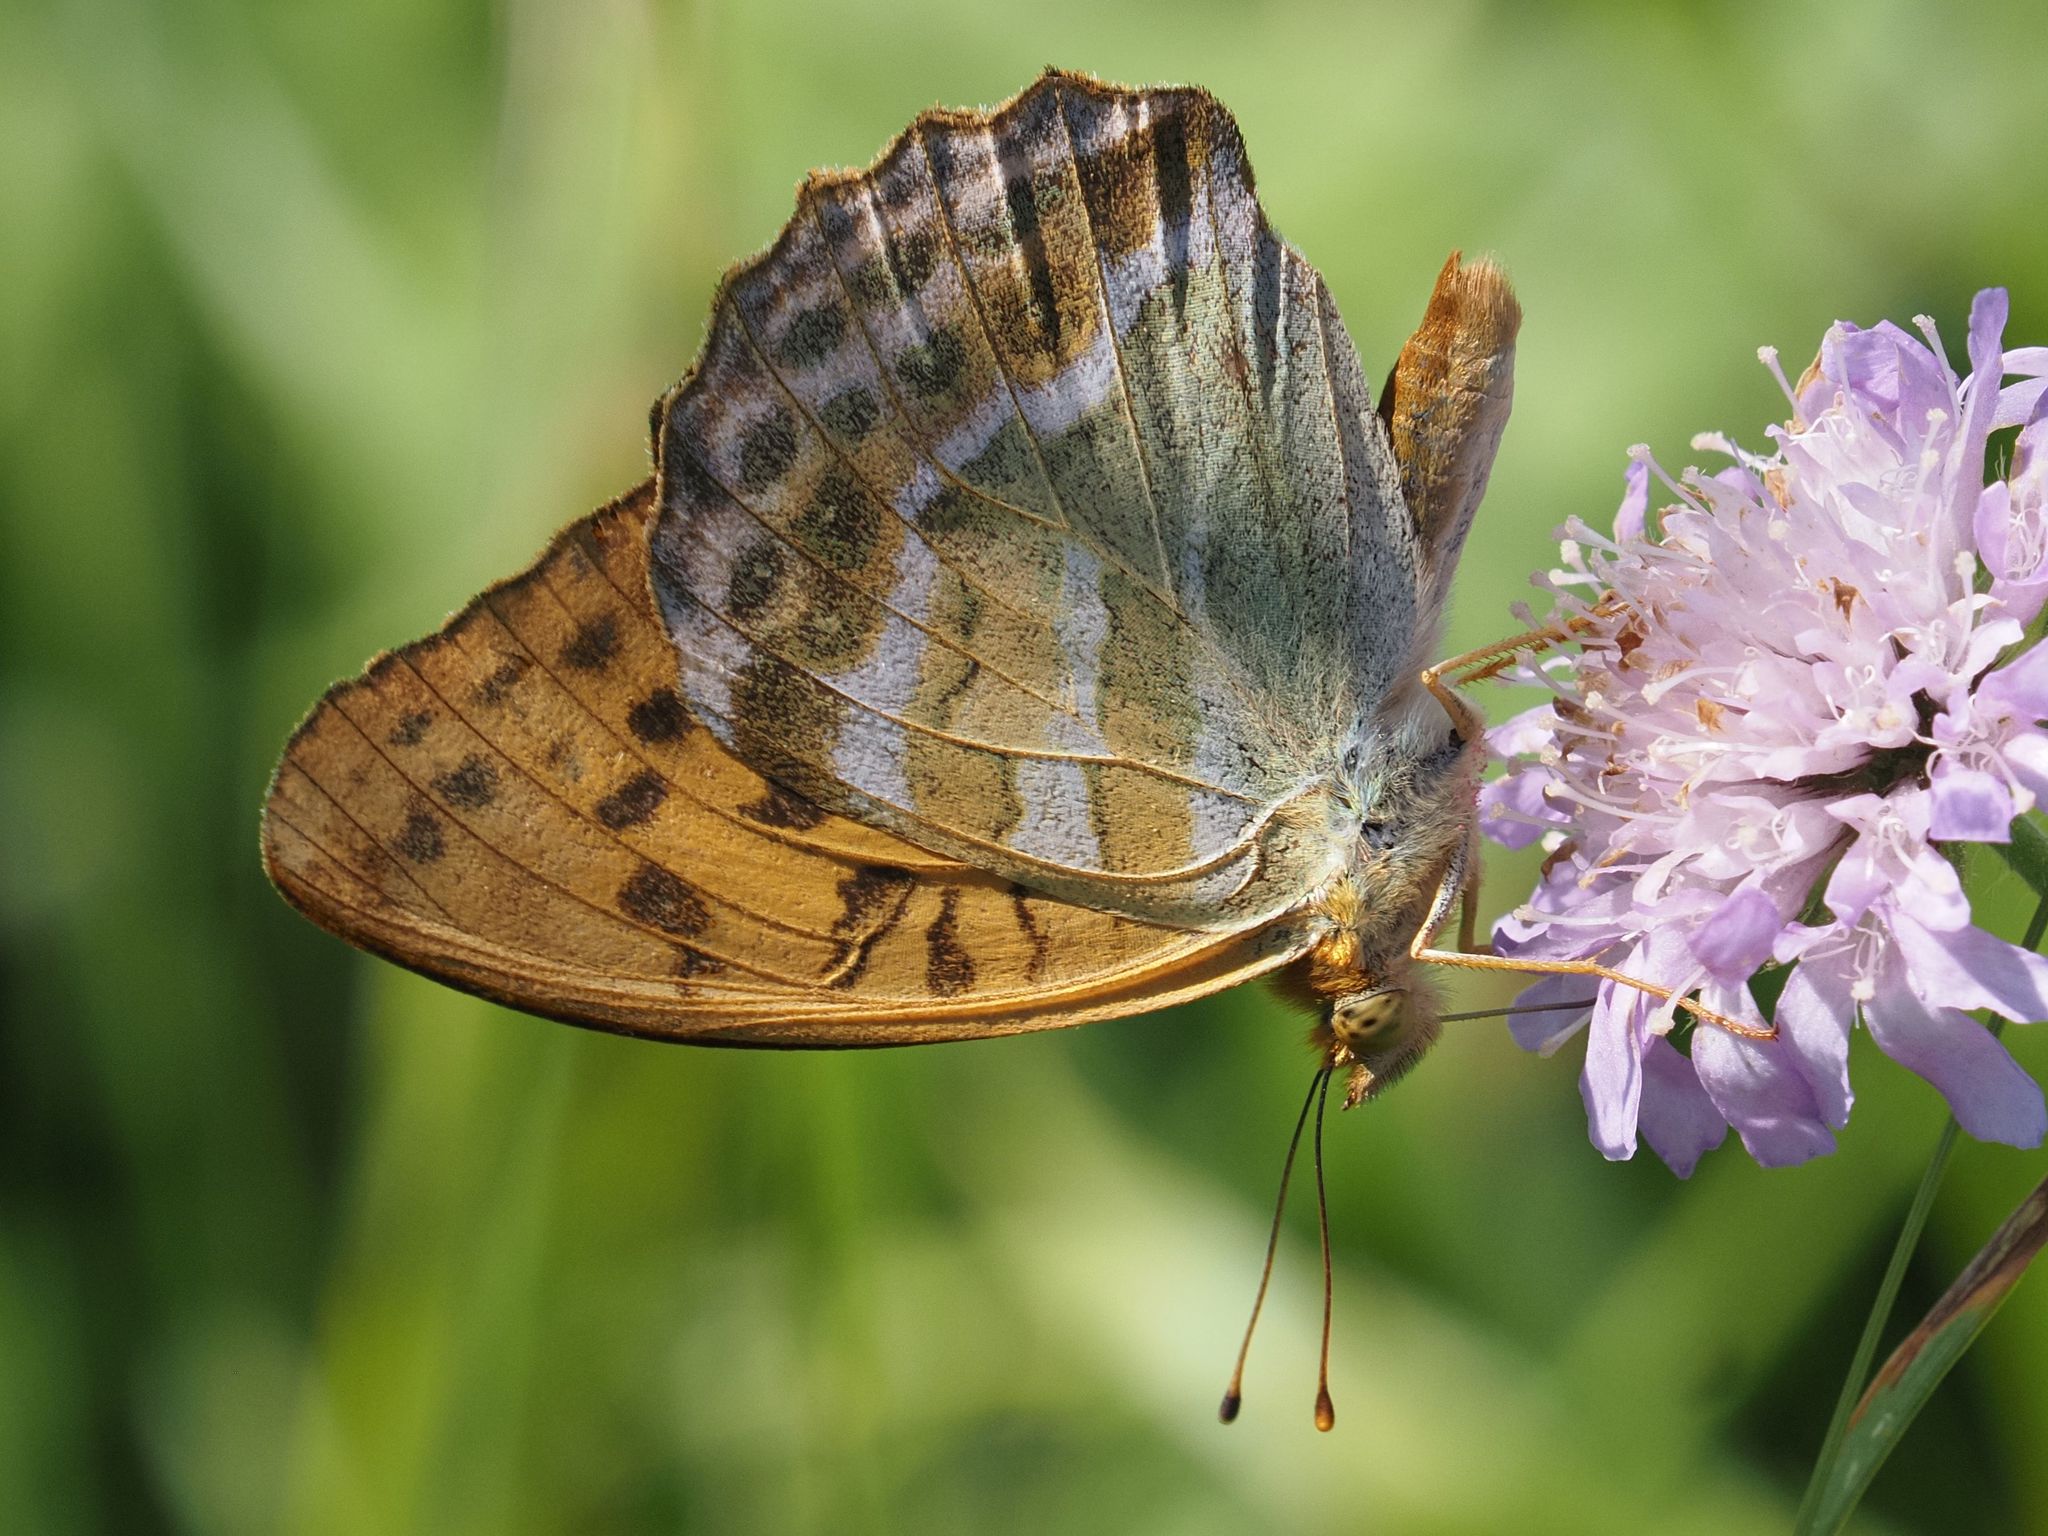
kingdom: Animalia
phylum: Arthropoda
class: Insecta
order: Lepidoptera
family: Nymphalidae
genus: Argynnis
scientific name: Argynnis paphia
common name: Silver-washed fritillary
